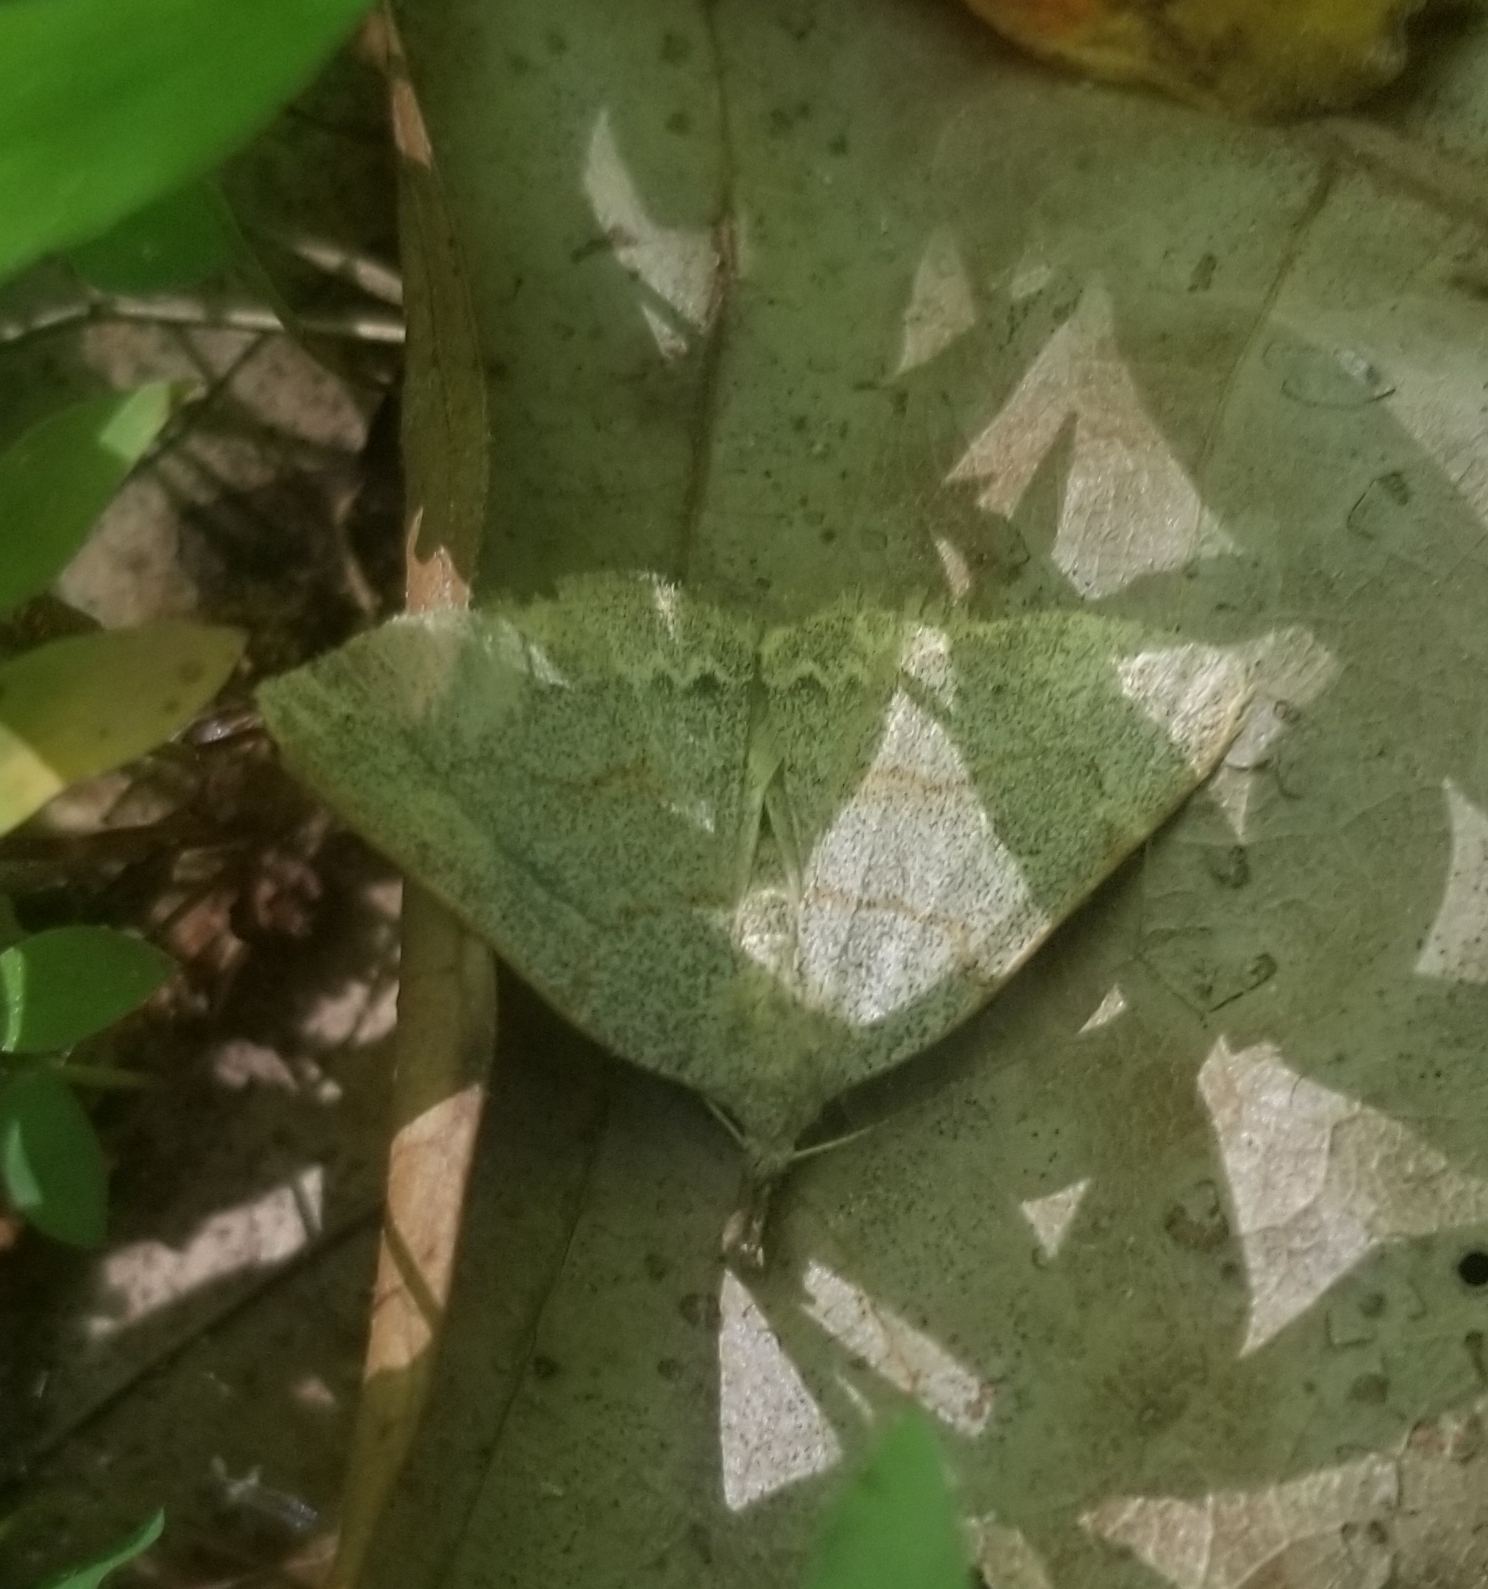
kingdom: Animalia
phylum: Arthropoda
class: Insecta
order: Lepidoptera
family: Erebidae
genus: Macrochilo
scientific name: Macrochilo morbidalis
